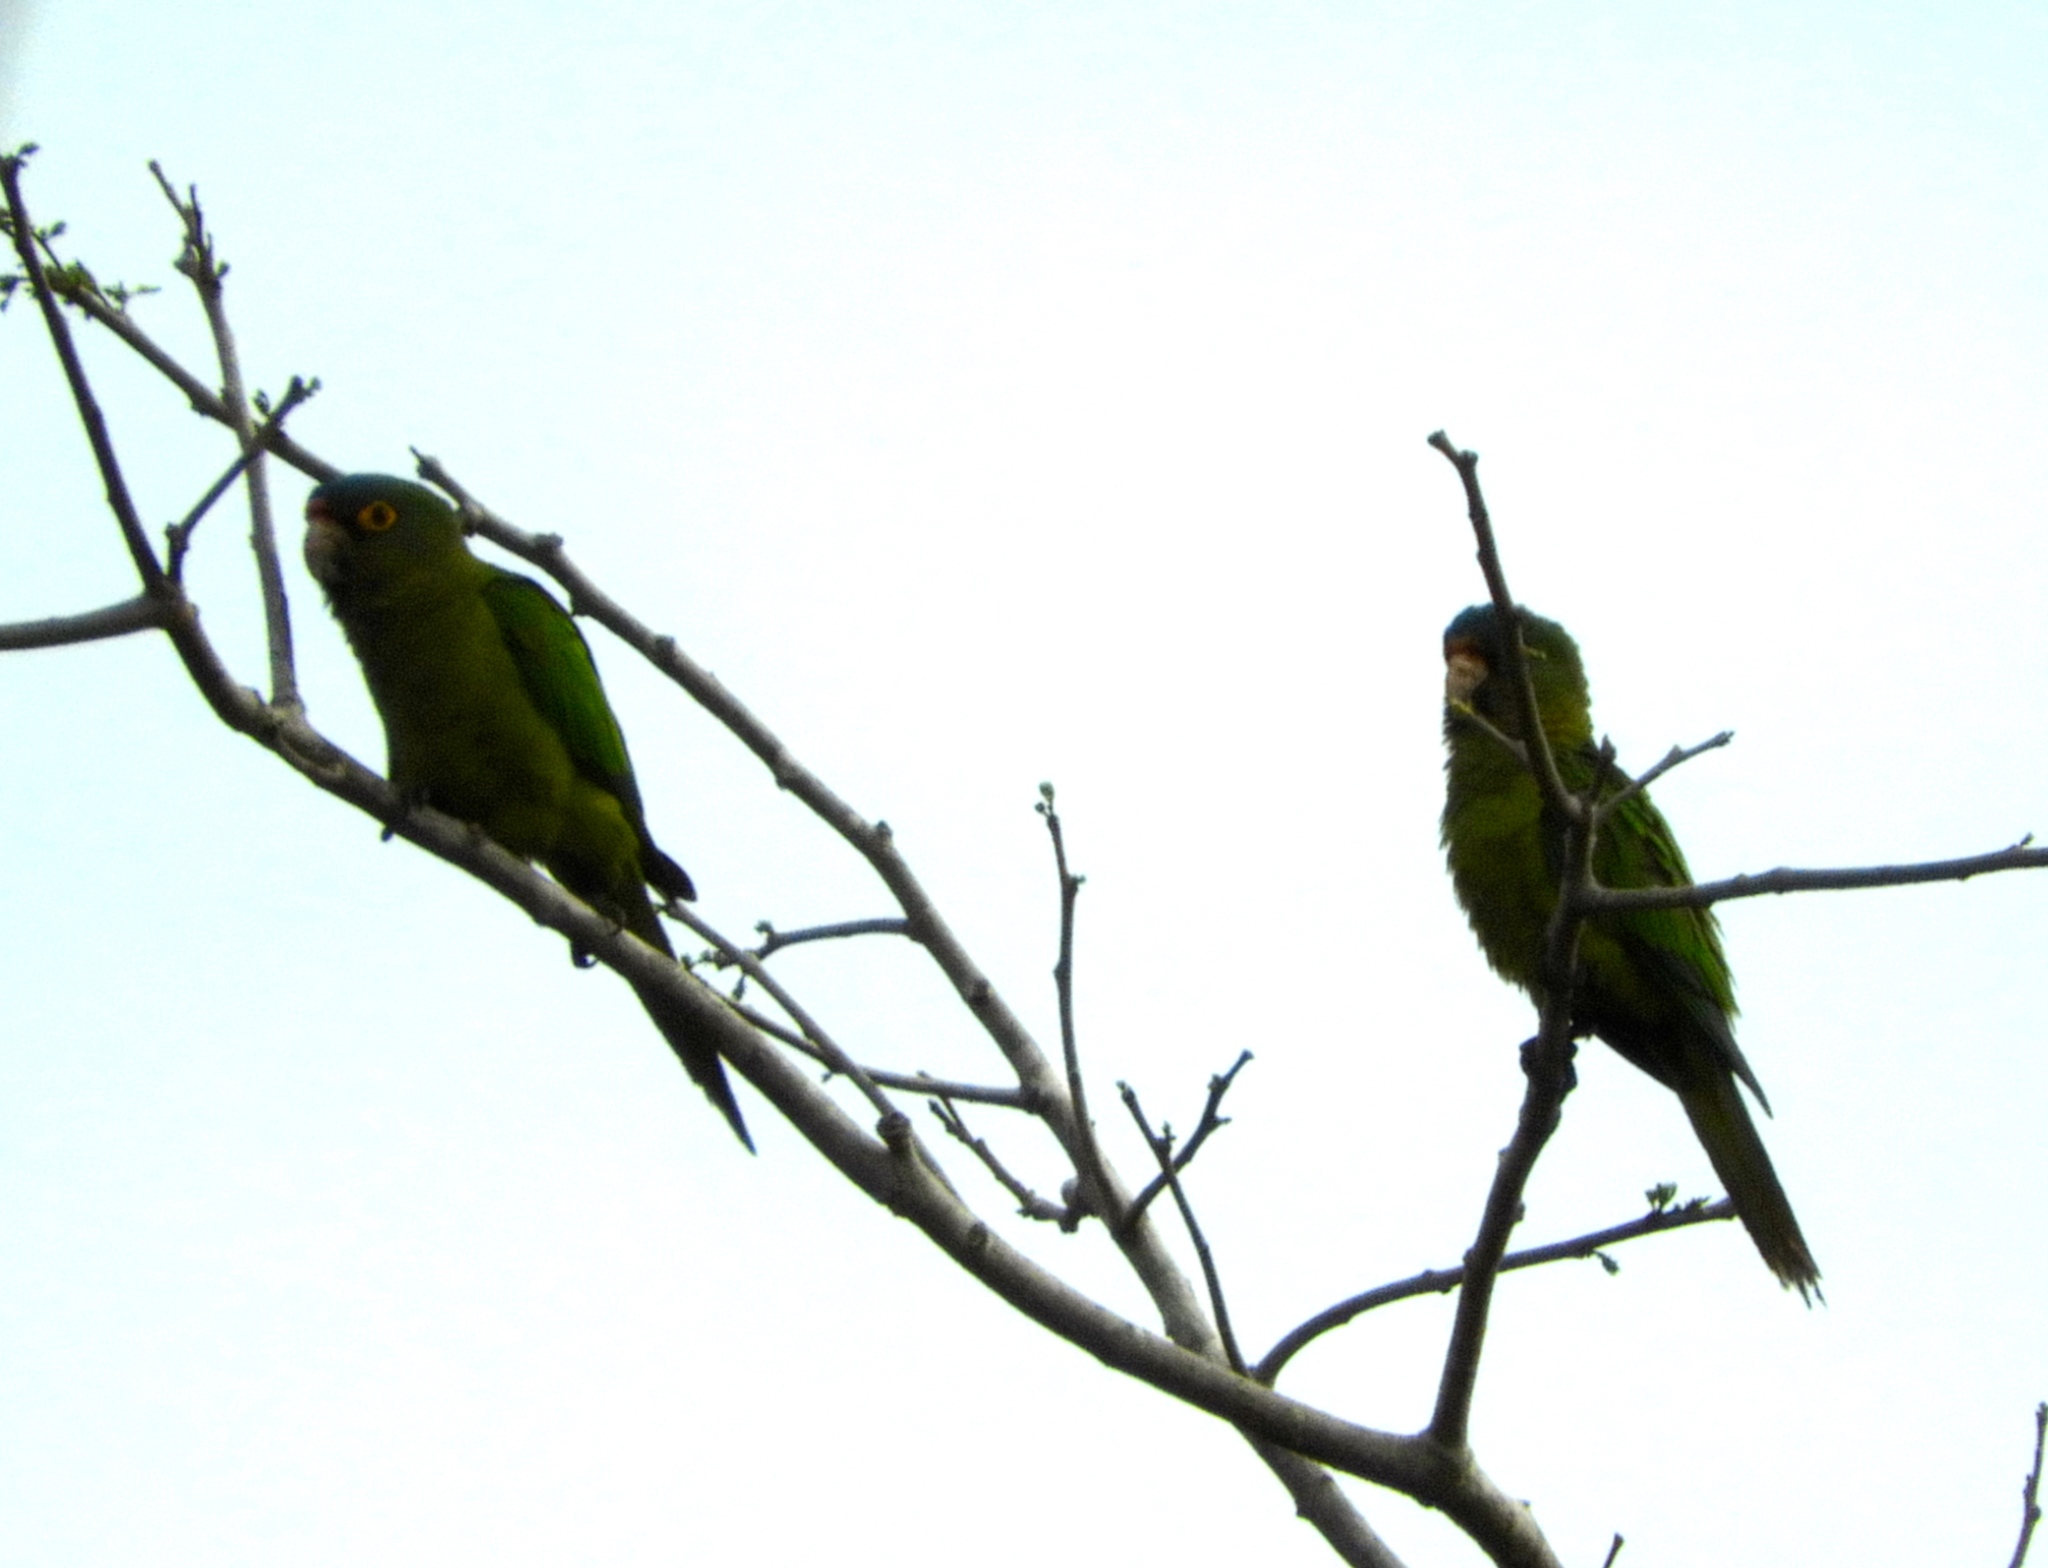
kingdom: Animalia
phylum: Chordata
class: Aves
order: Psittaciformes
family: Psittacidae
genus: Aratinga
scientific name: Aratinga canicularis
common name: Orange-fronted parakeet
